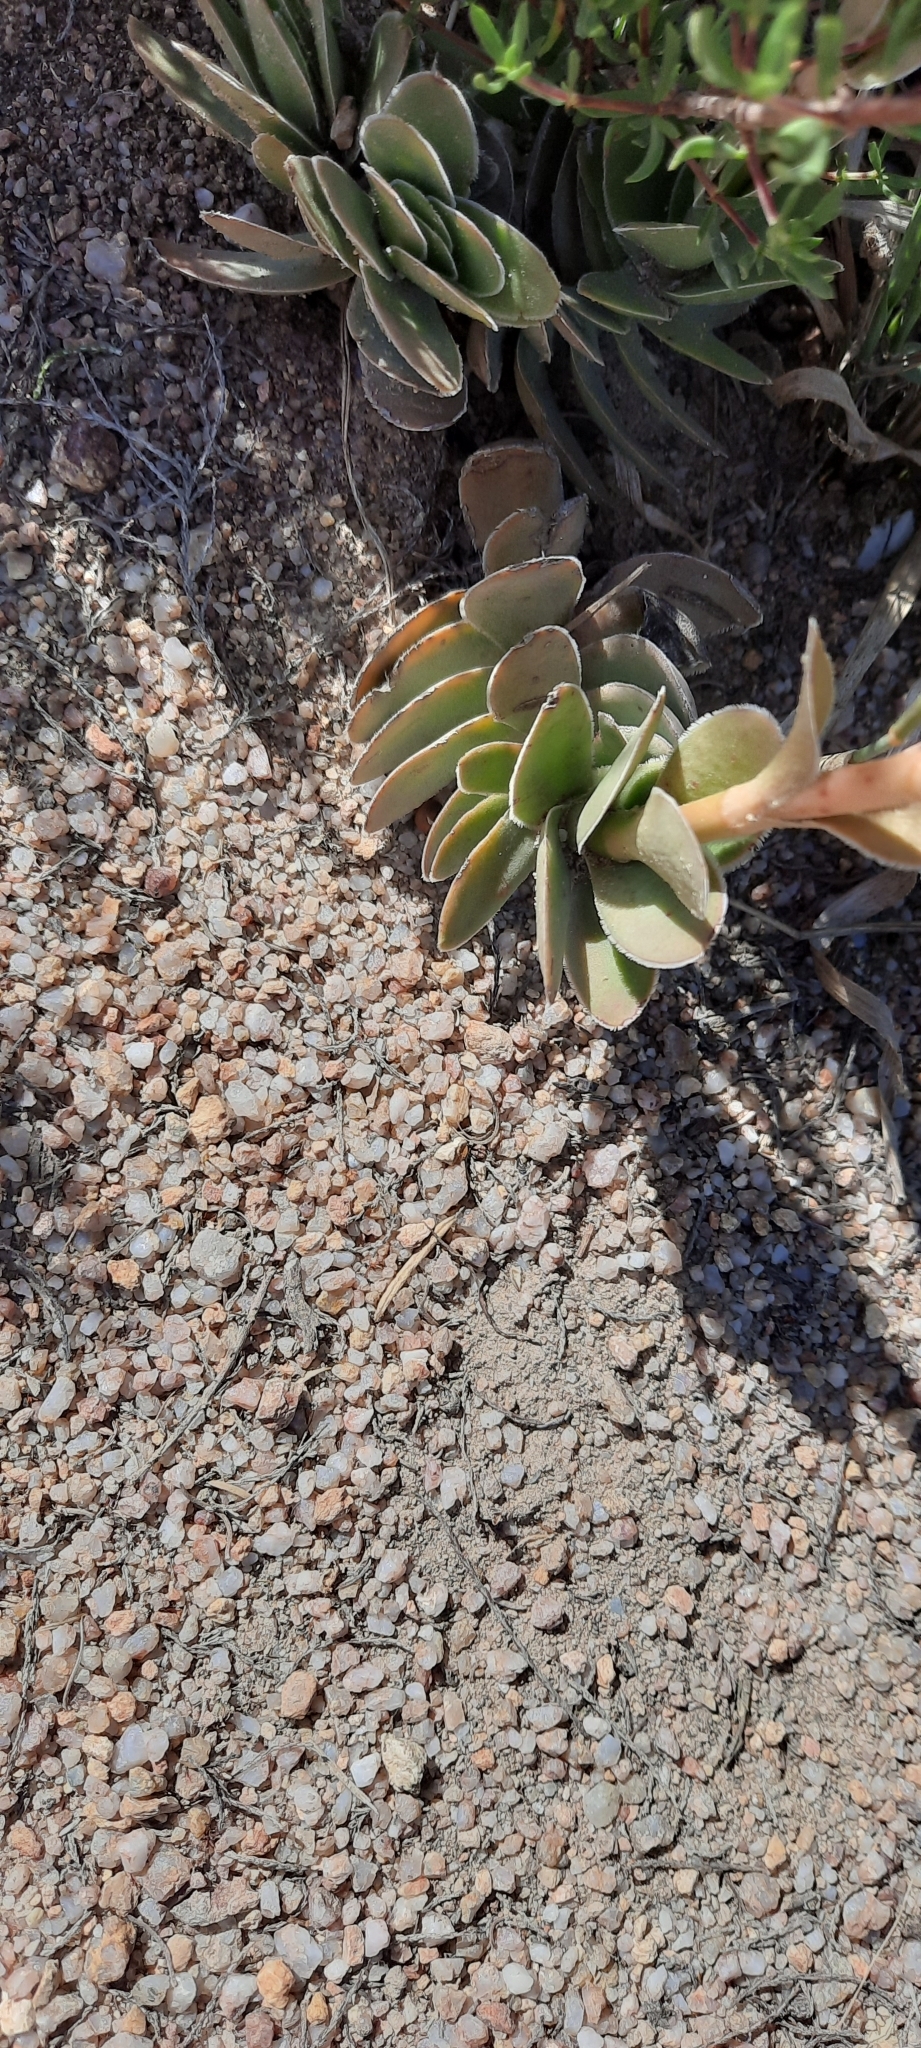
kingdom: Plantae
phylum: Tracheophyta
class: Magnoliopsida
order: Saxifragales
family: Crassulaceae
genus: Crassula
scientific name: Crassula ciliata
